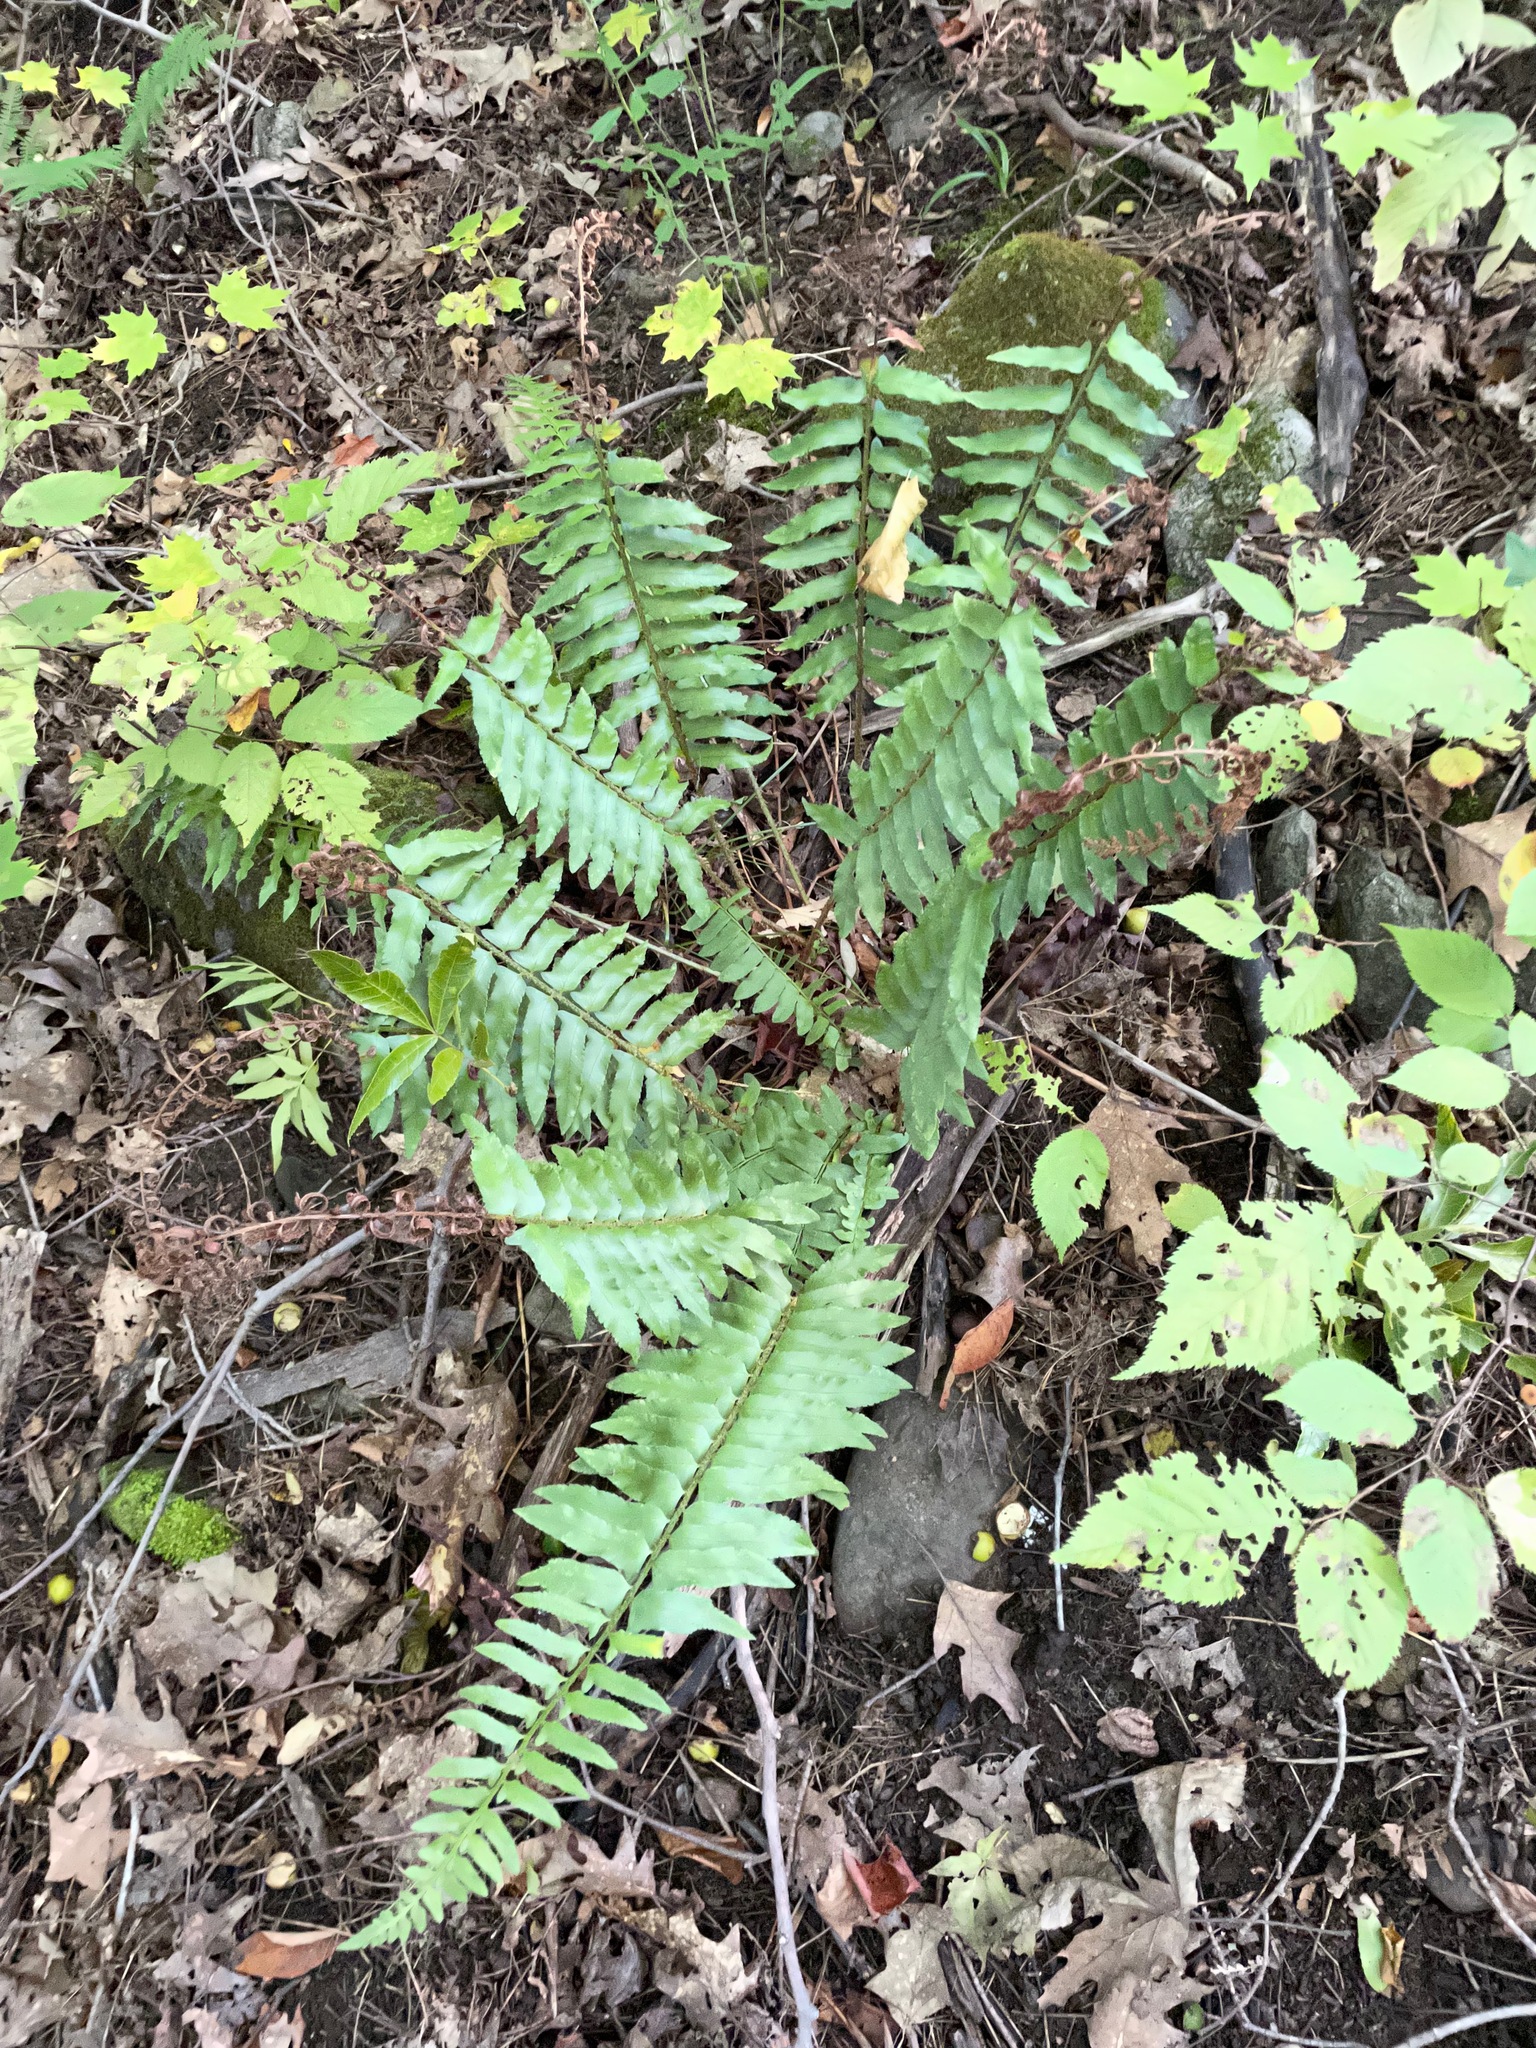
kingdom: Plantae
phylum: Tracheophyta
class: Polypodiopsida
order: Polypodiales
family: Dryopteridaceae
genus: Polystichum
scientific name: Polystichum acrostichoides
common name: Christmas fern
